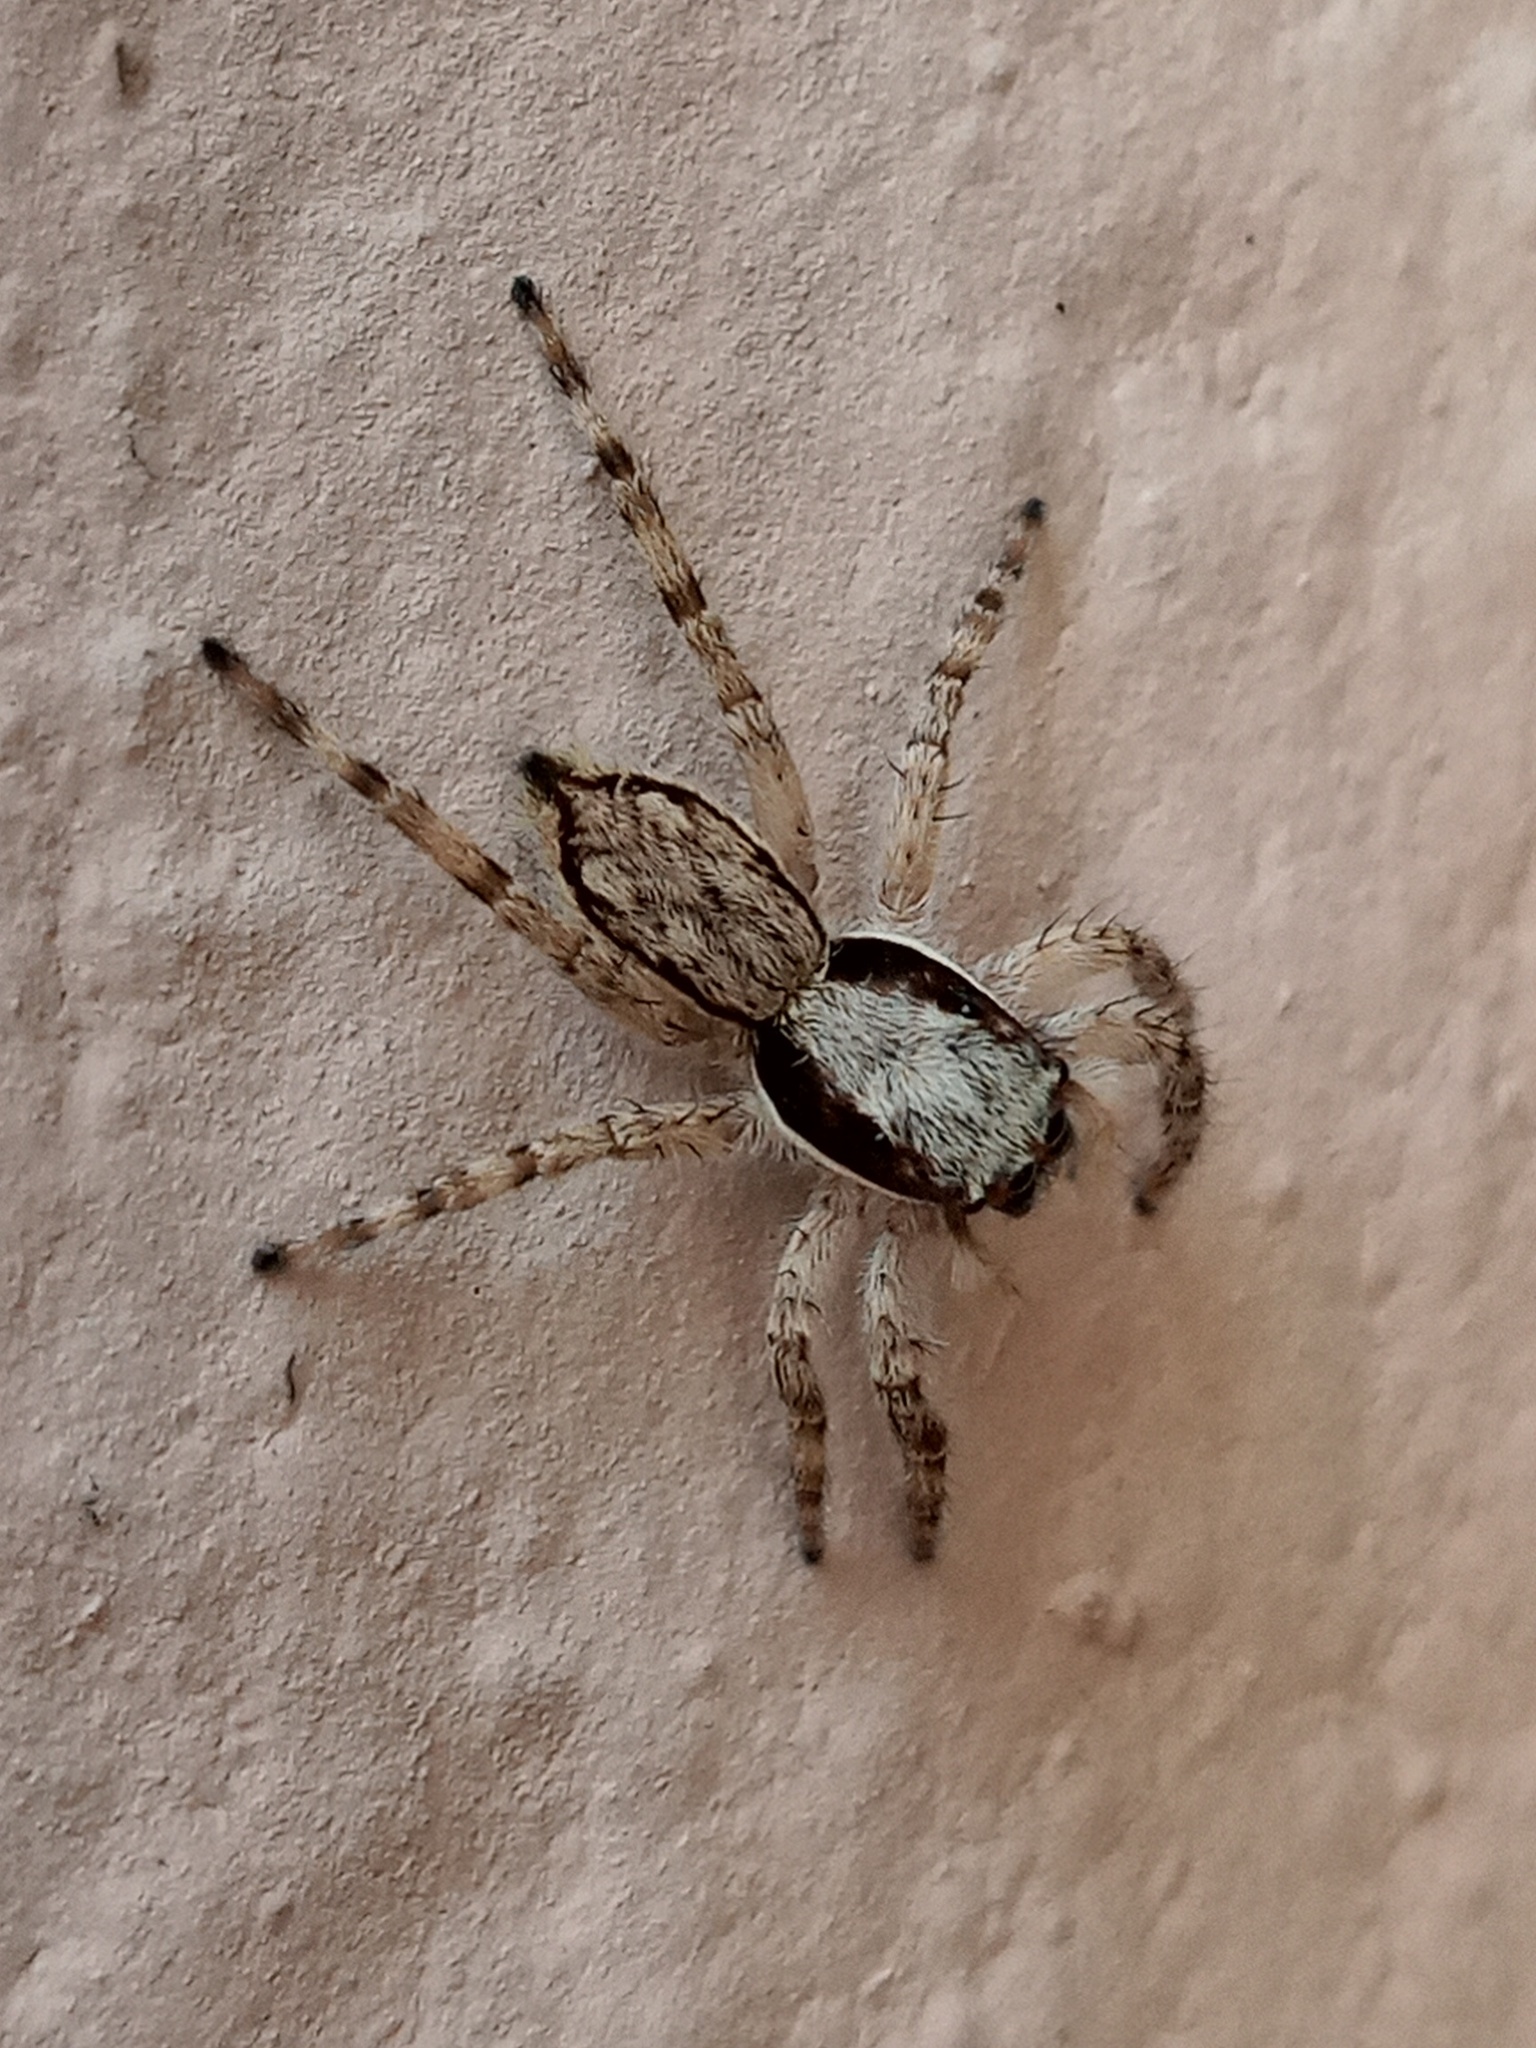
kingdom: Animalia
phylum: Arthropoda
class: Arachnida
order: Araneae
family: Salticidae
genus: Menemerus
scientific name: Menemerus bivittatus
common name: Gray wall jumper
